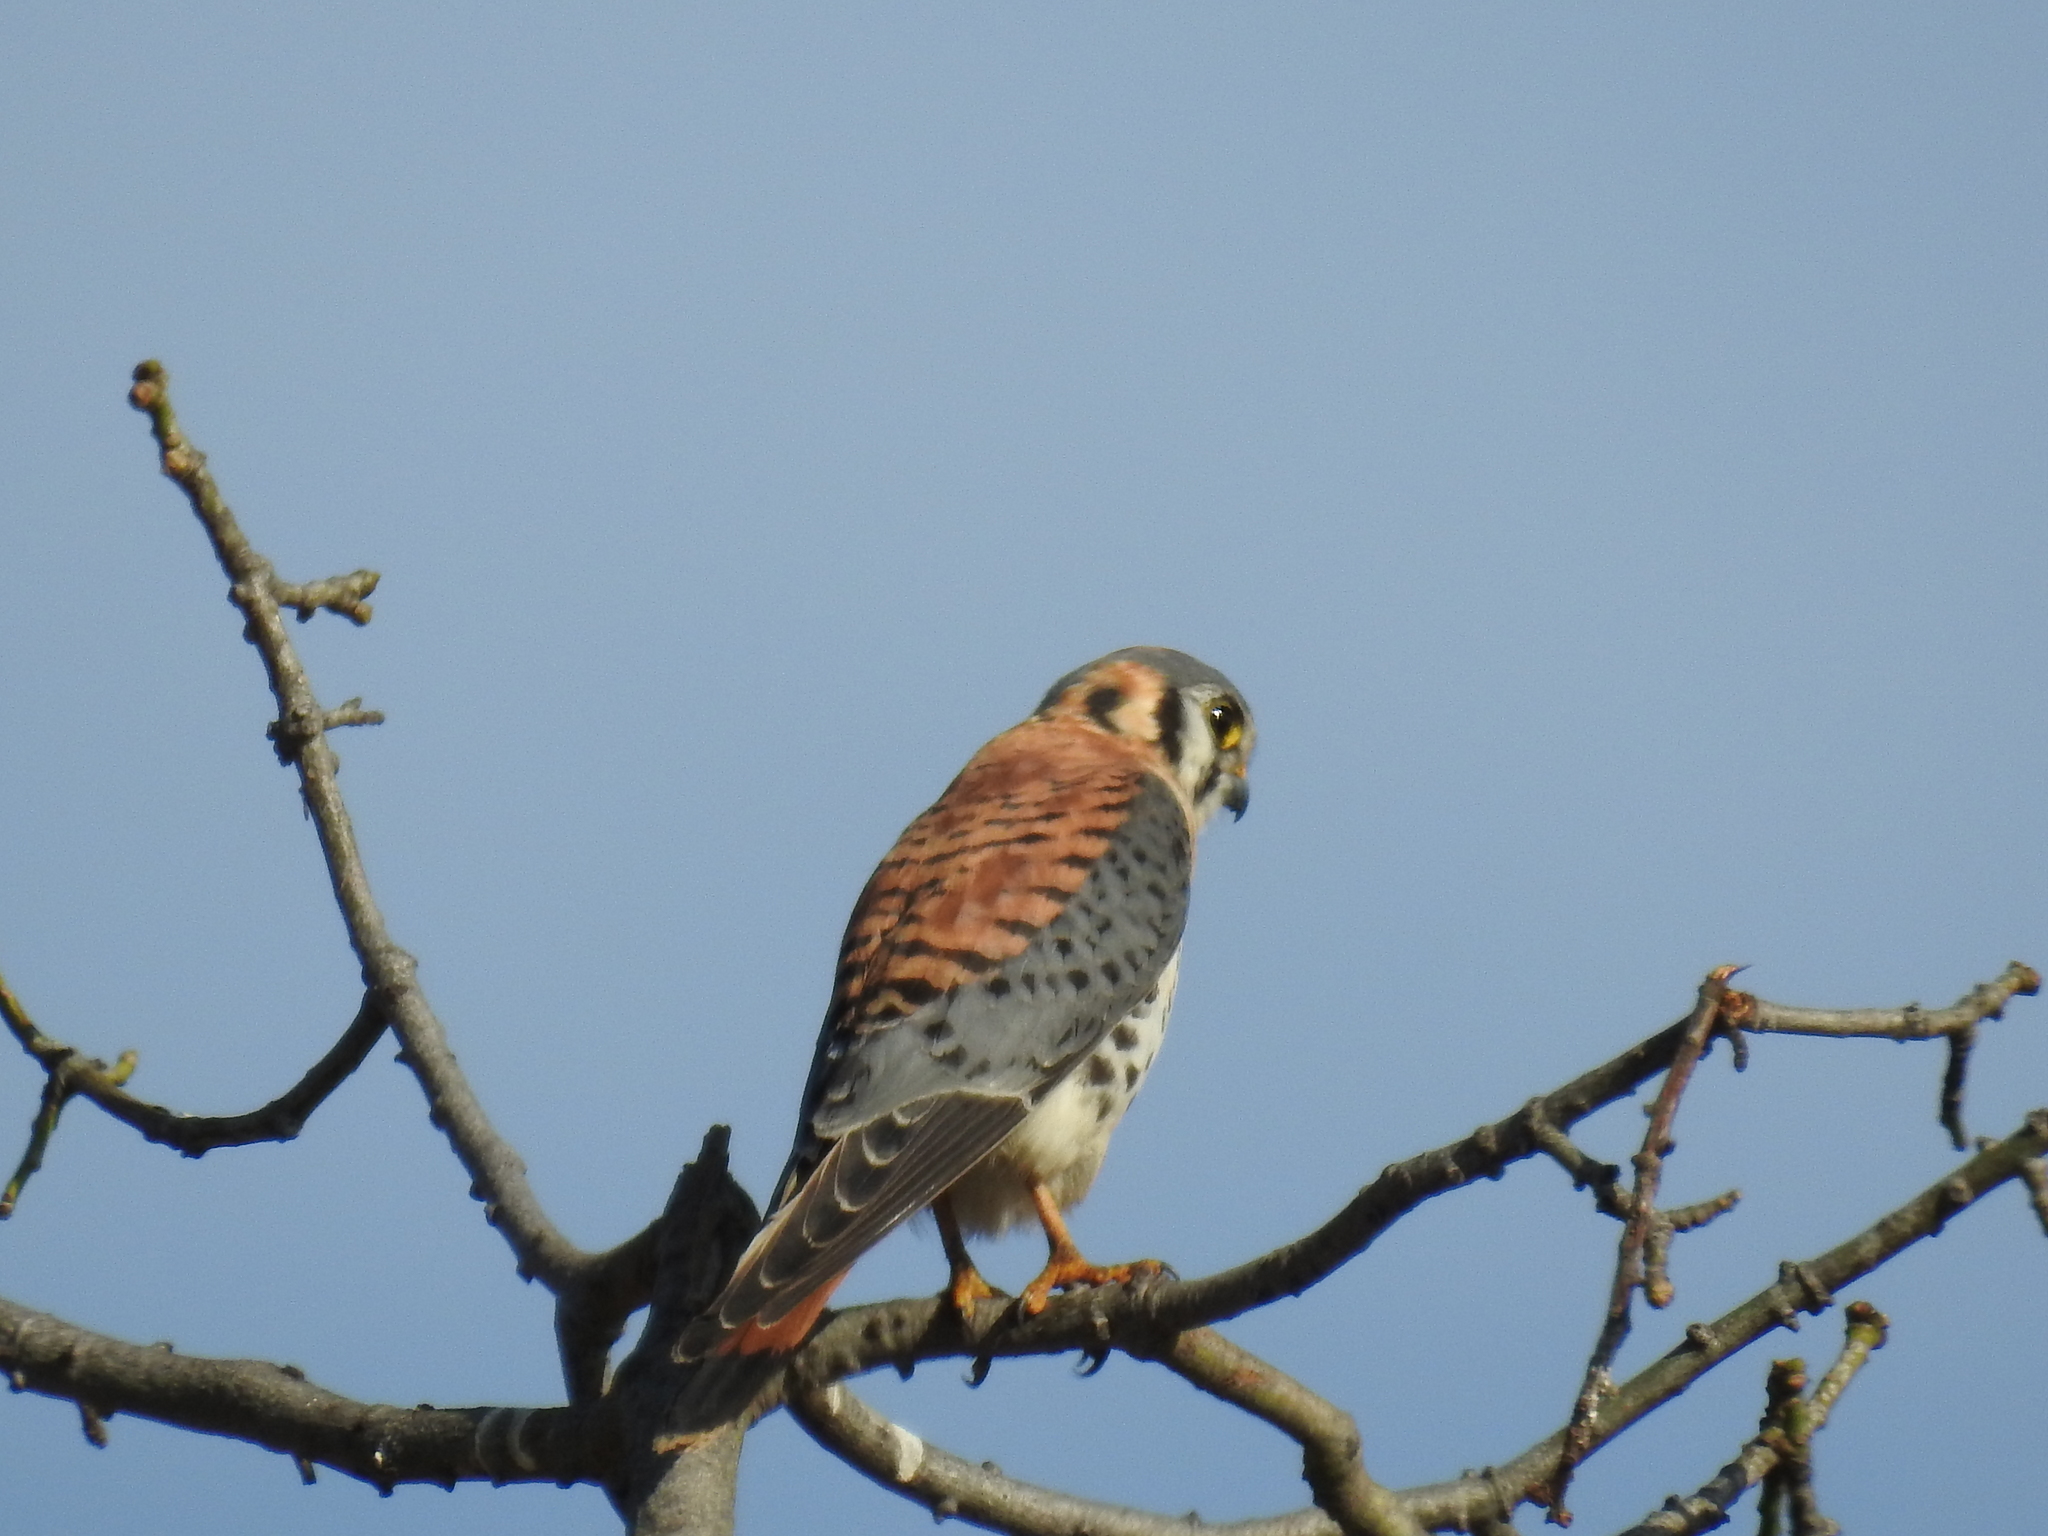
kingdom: Animalia
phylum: Chordata
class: Aves
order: Falconiformes
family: Falconidae
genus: Falco
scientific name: Falco sparverius
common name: American kestrel
